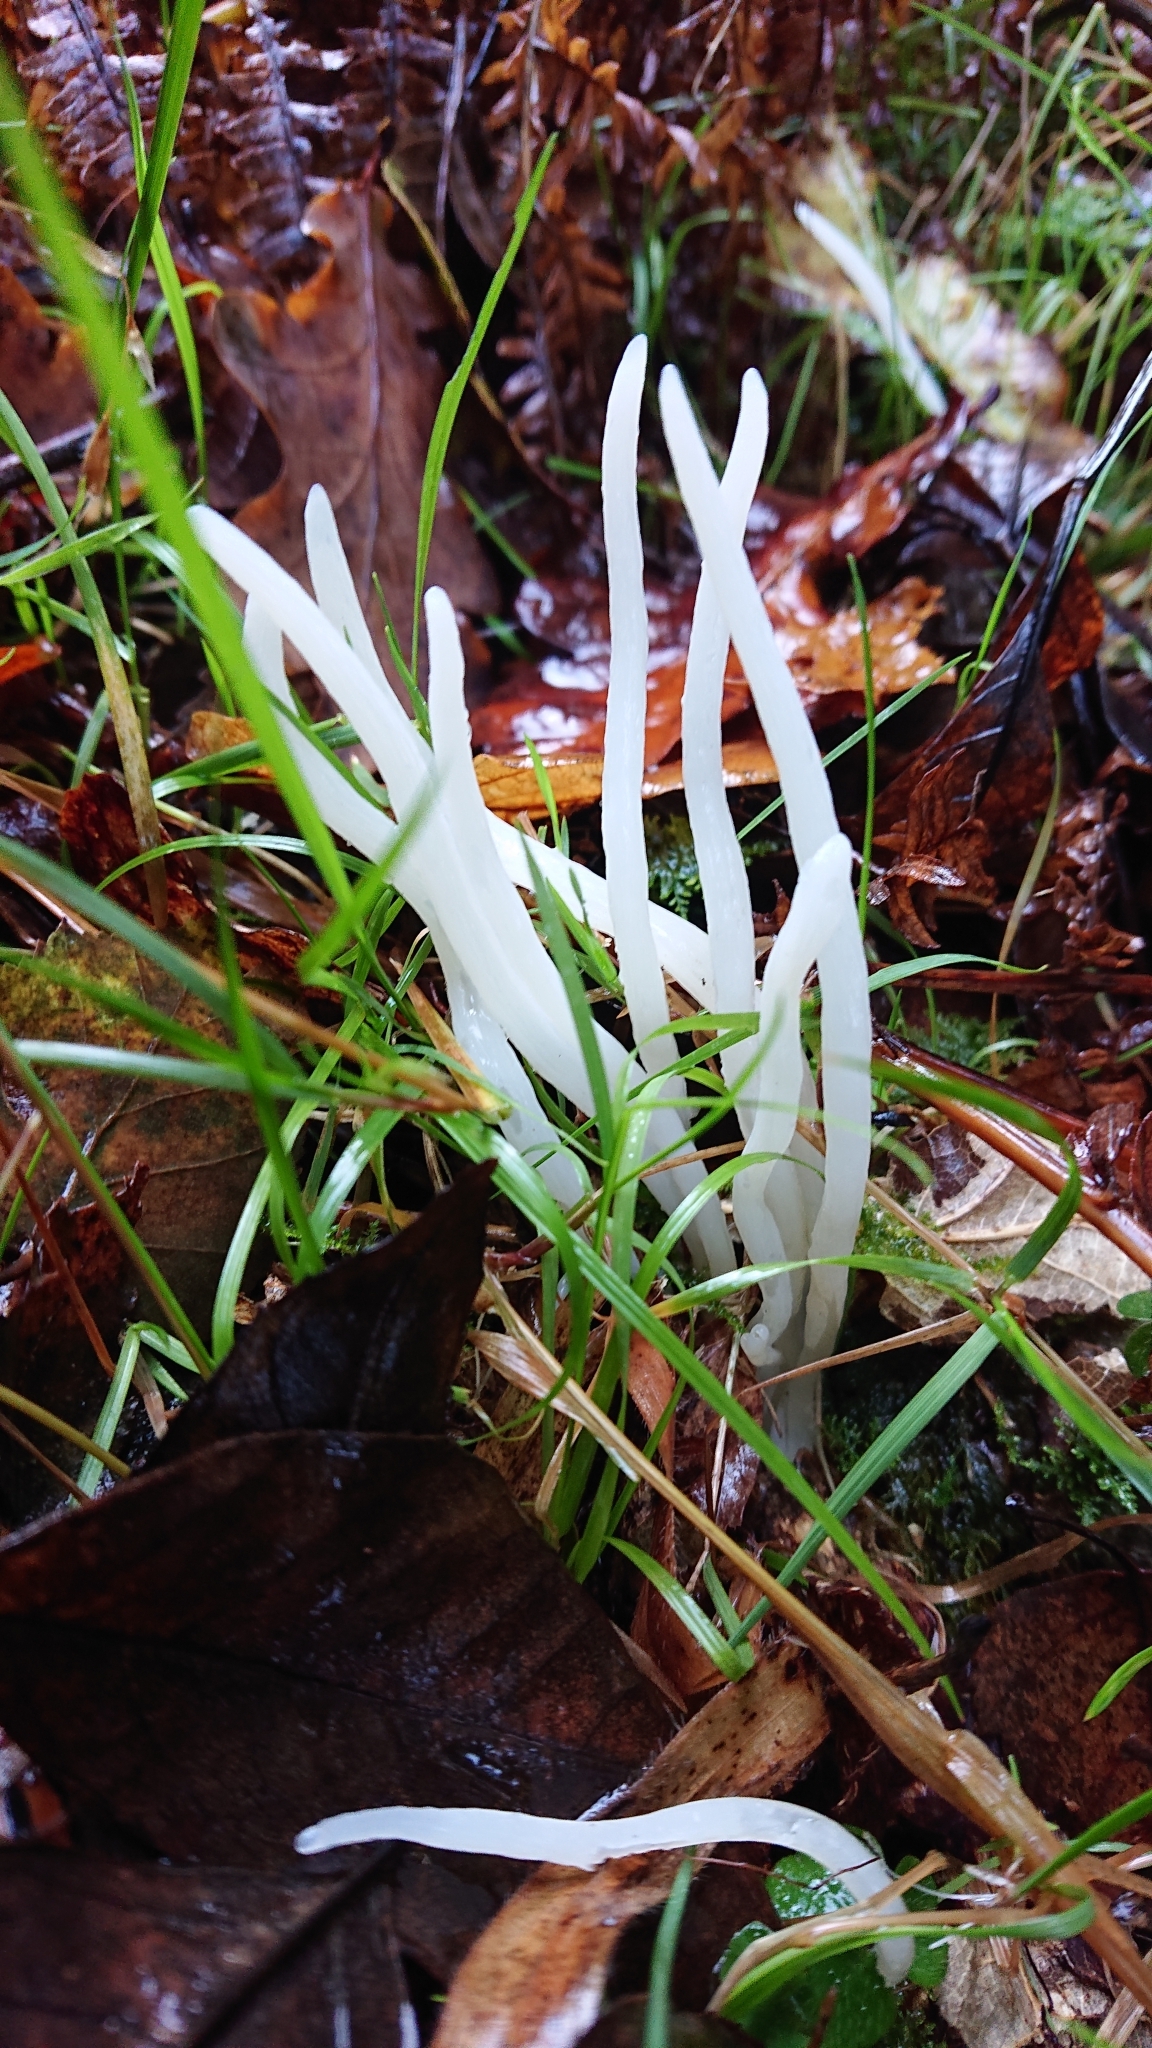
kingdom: Fungi
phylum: Basidiomycota
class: Agaricomycetes
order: Agaricales
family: Clavariaceae
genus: Clavaria
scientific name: Clavaria fragilis
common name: White spindles
